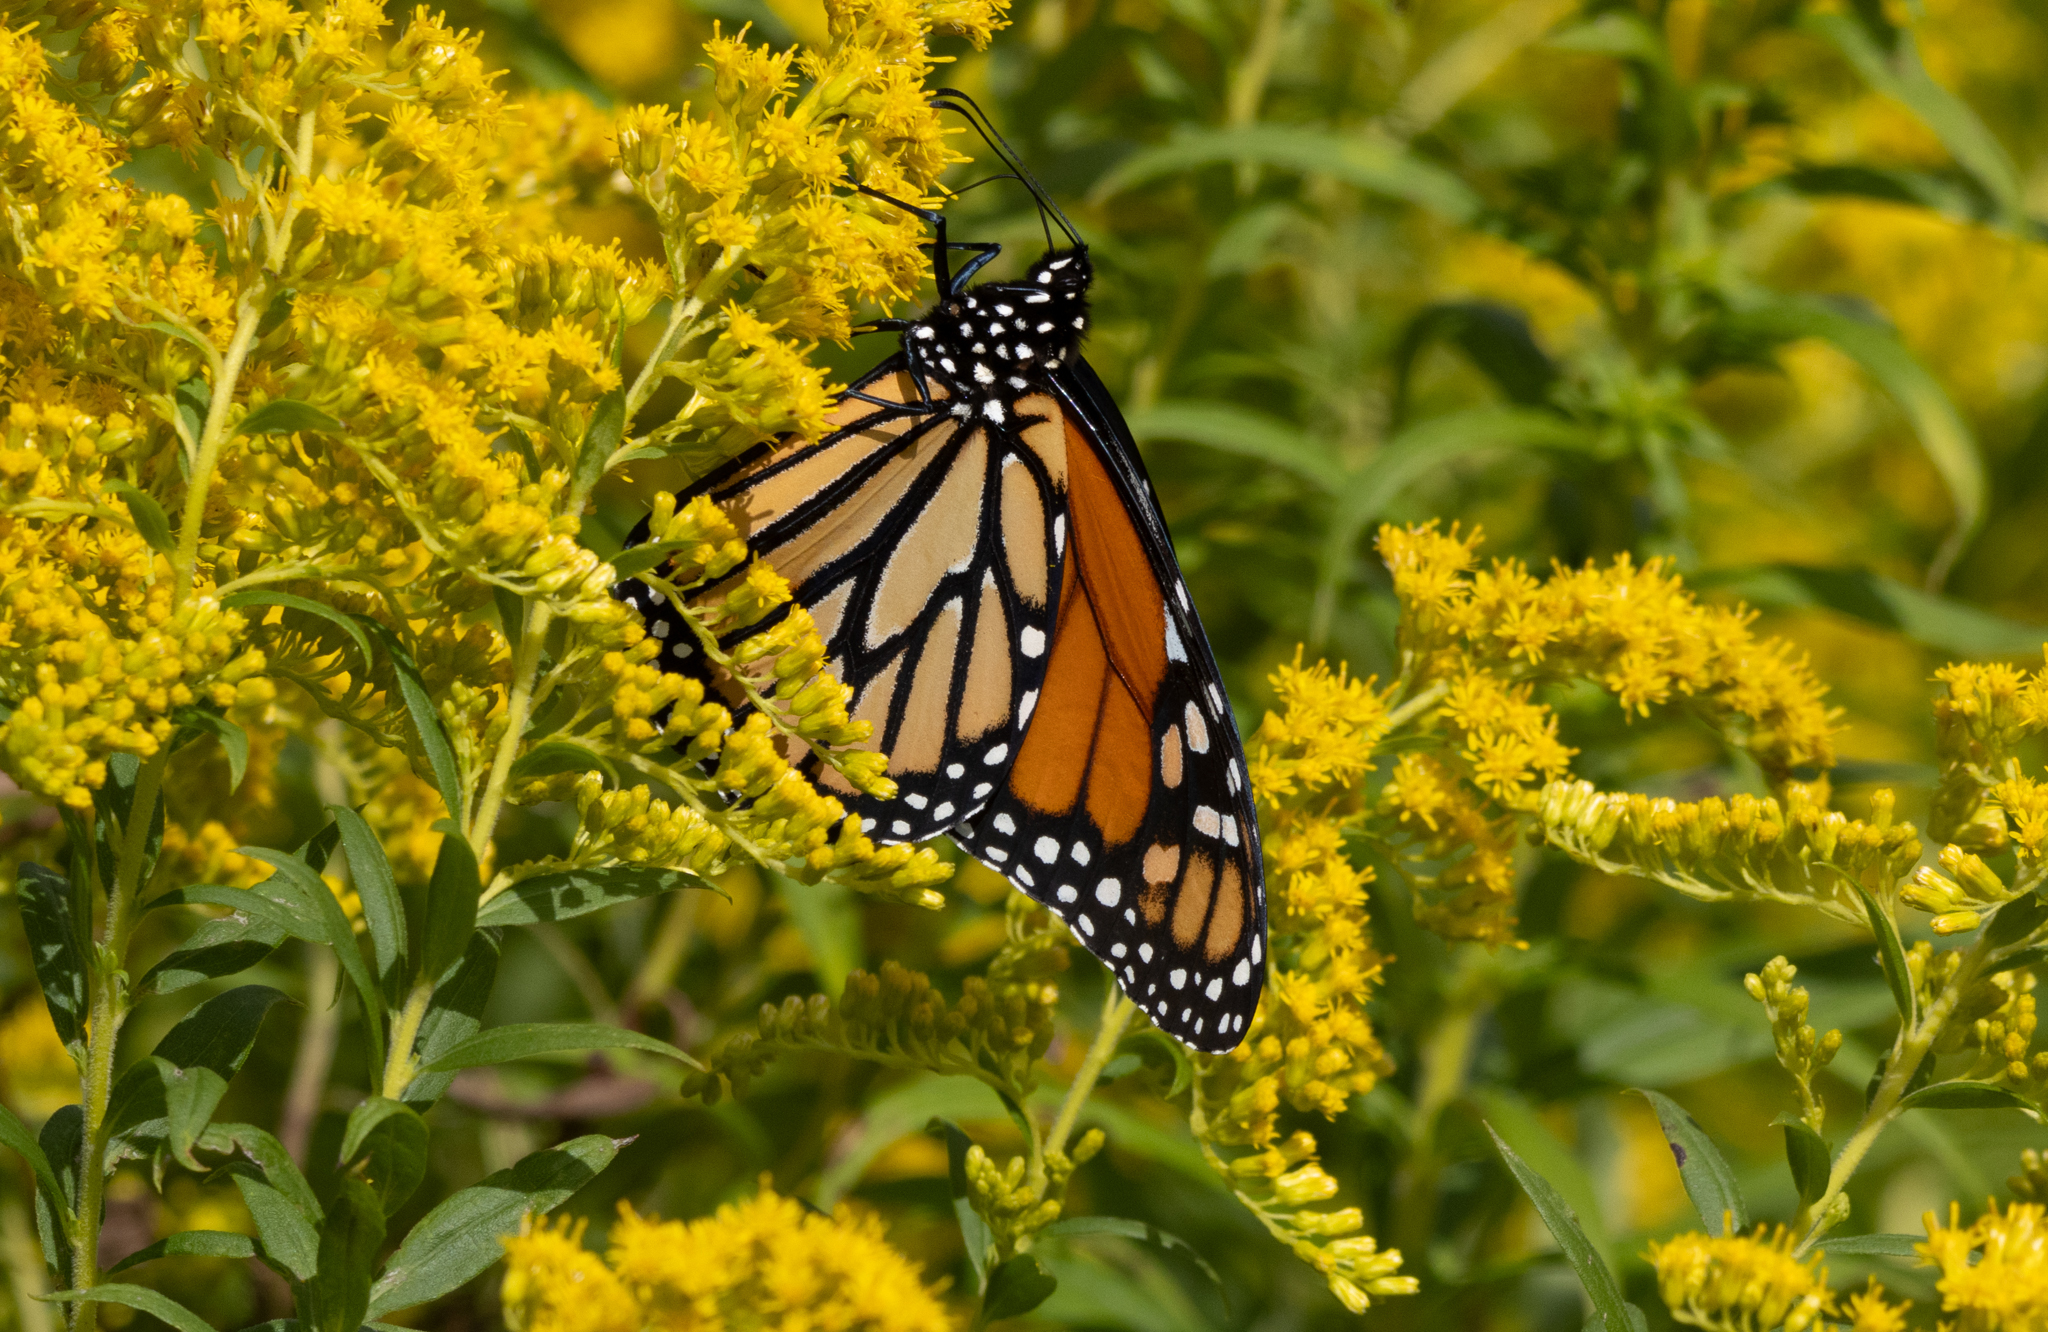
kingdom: Animalia
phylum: Arthropoda
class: Insecta
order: Lepidoptera
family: Nymphalidae
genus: Danaus
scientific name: Danaus plexippus
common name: Monarch
